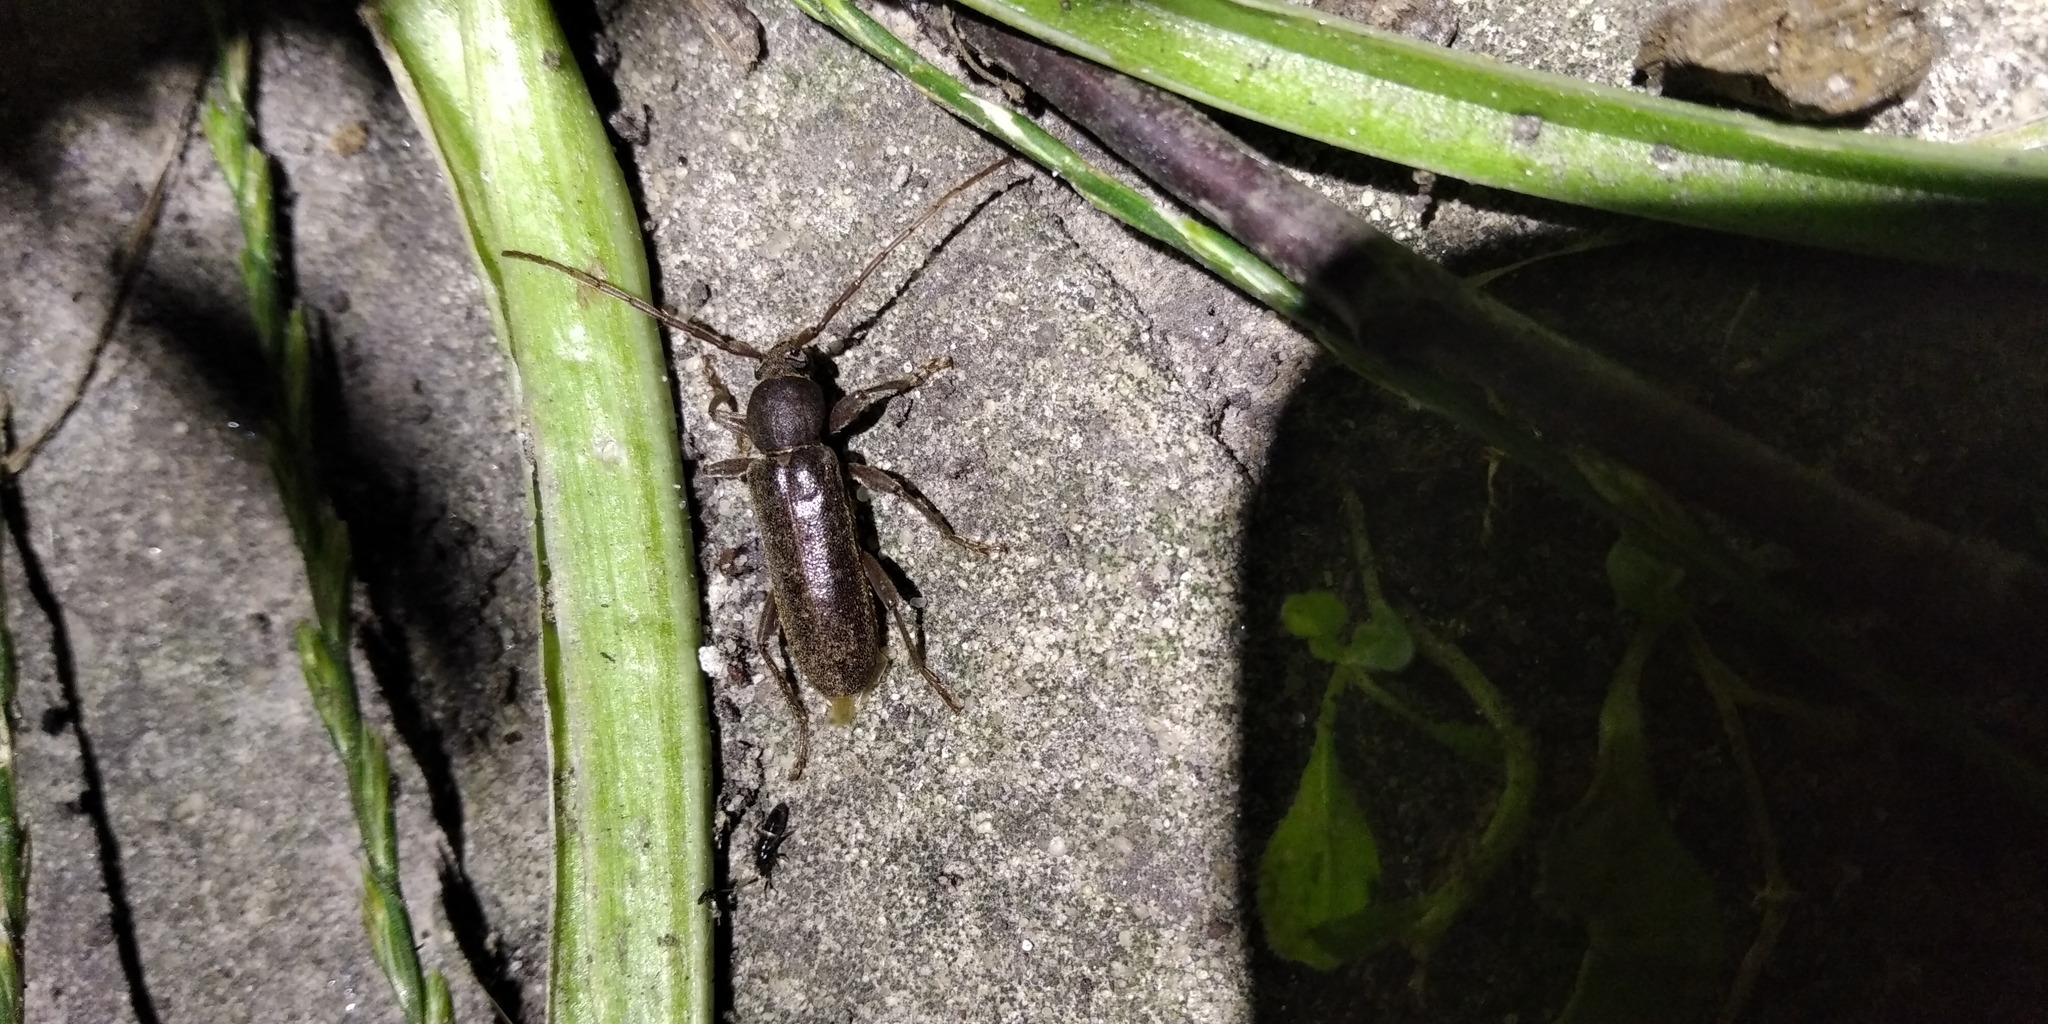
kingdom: Animalia
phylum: Arthropoda
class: Insecta
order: Coleoptera
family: Cerambycidae
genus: Trichoferus
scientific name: Trichoferus campestris
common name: Velvet long horned beetle
